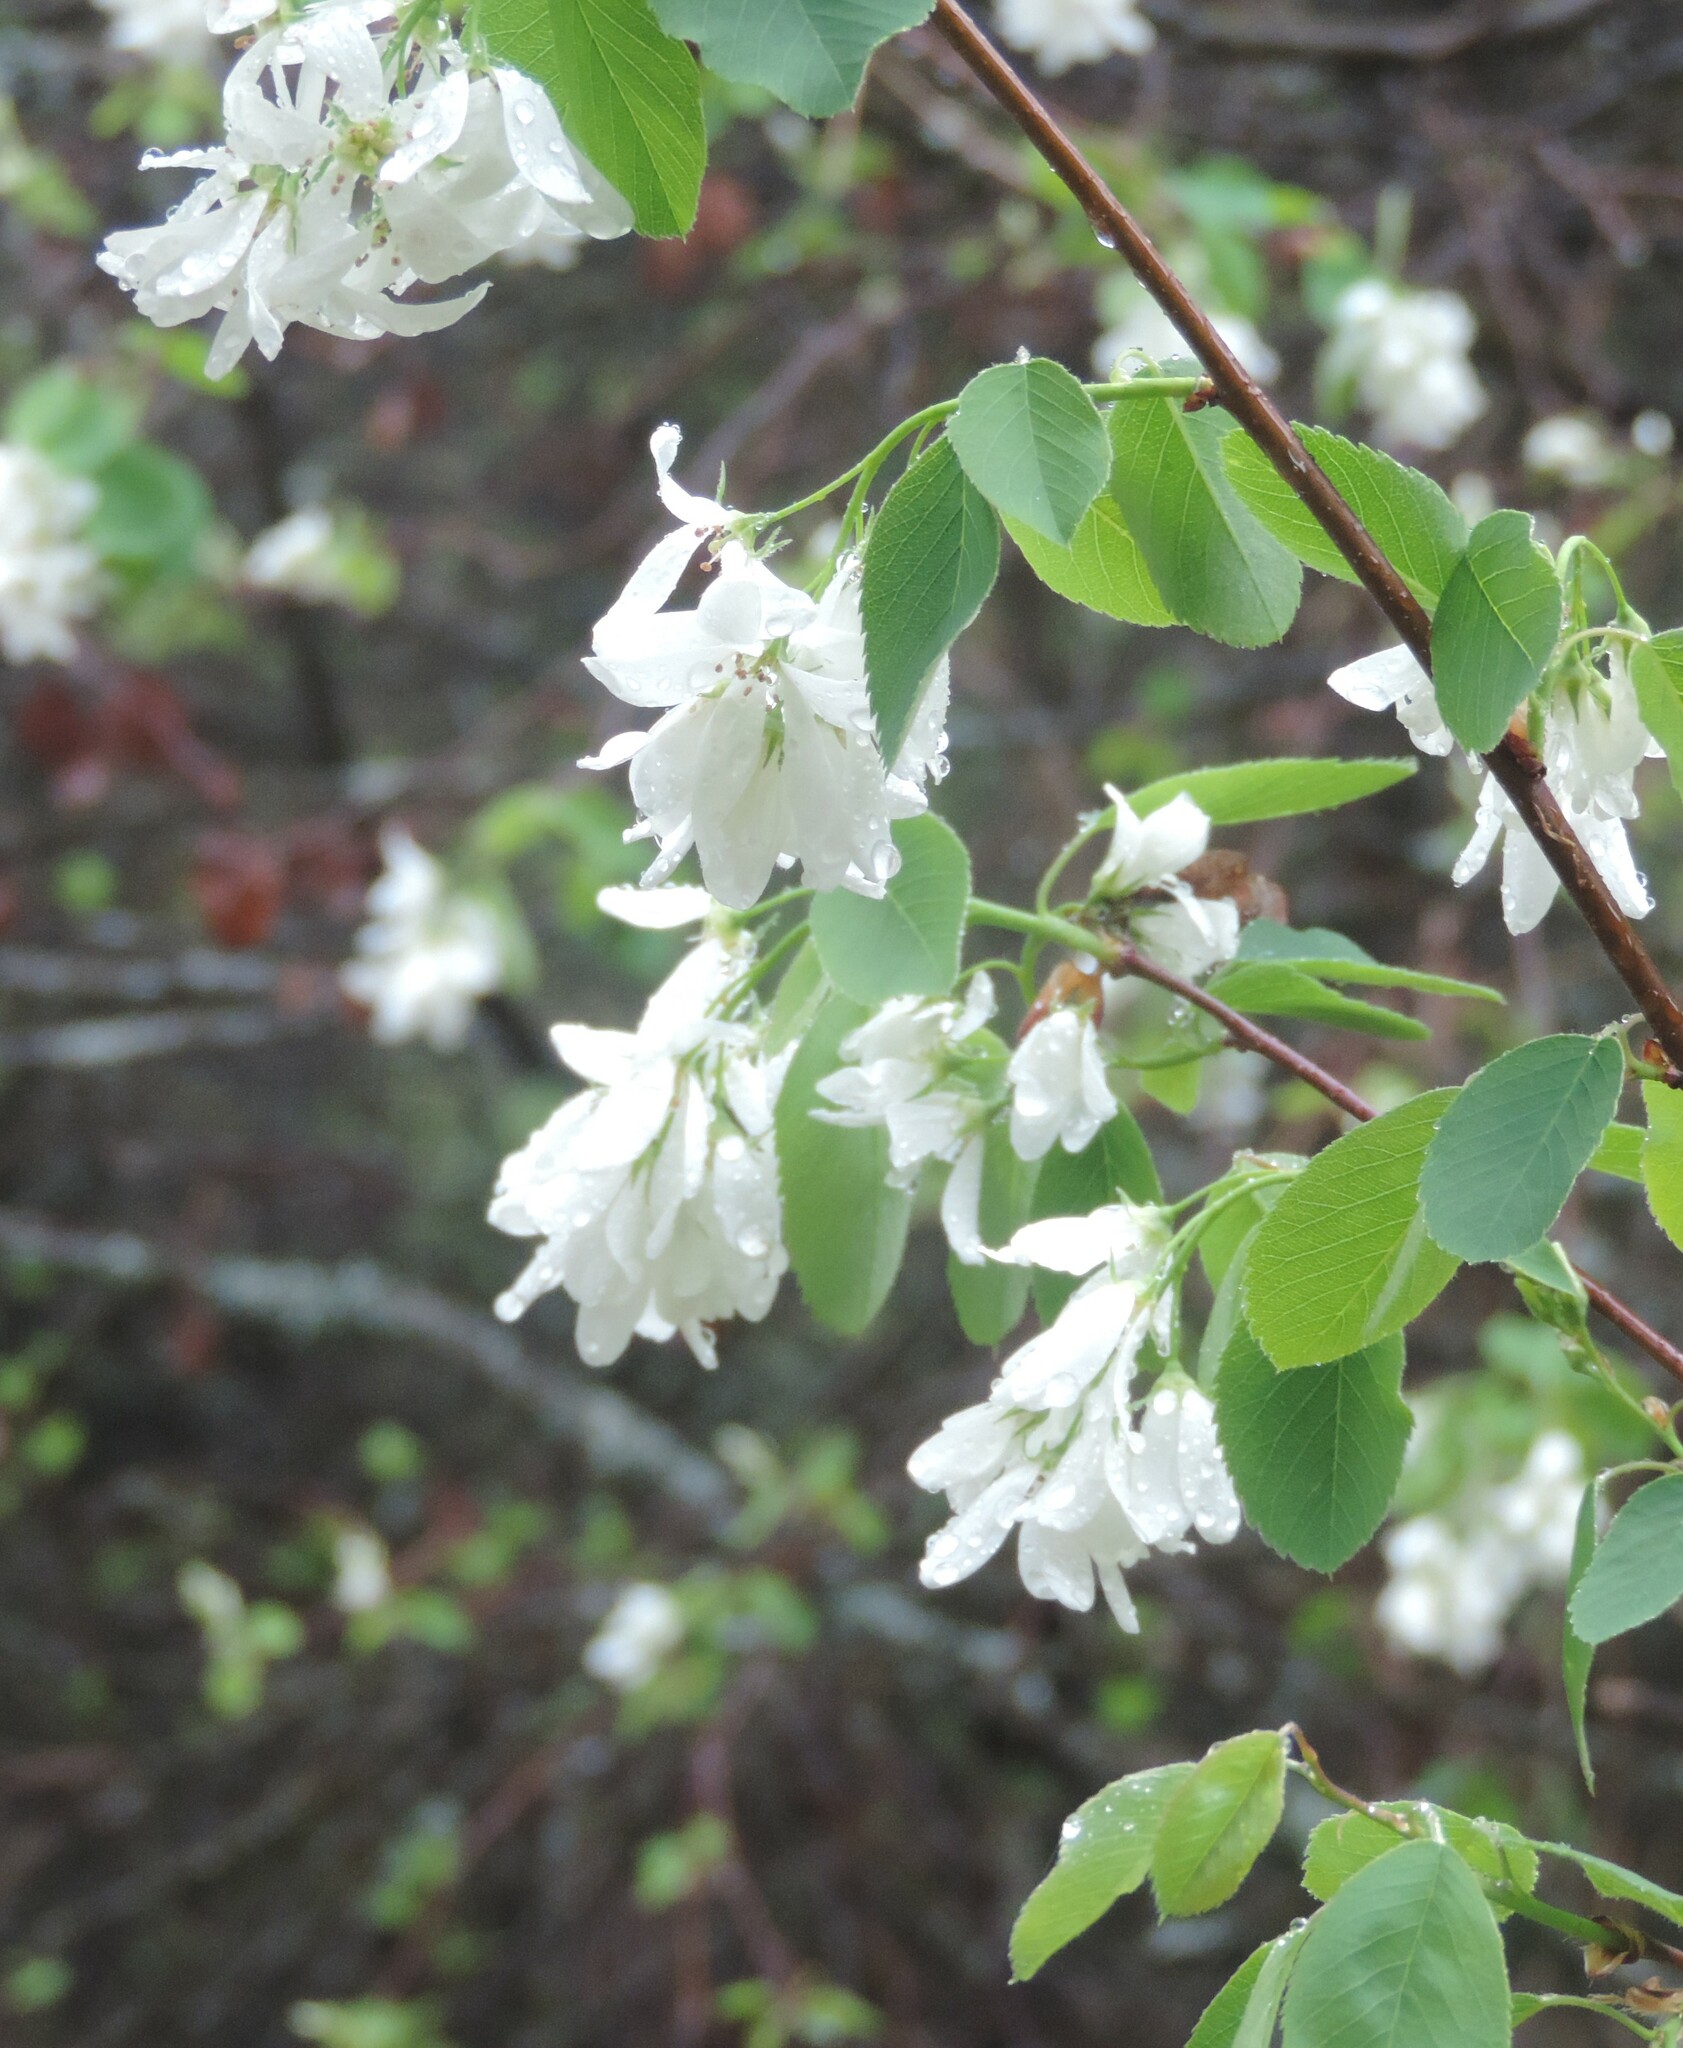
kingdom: Plantae
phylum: Tracheophyta
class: Magnoliopsida
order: Rosales
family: Rosaceae
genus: Amelanchier
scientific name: Amelanchier alnifolia
